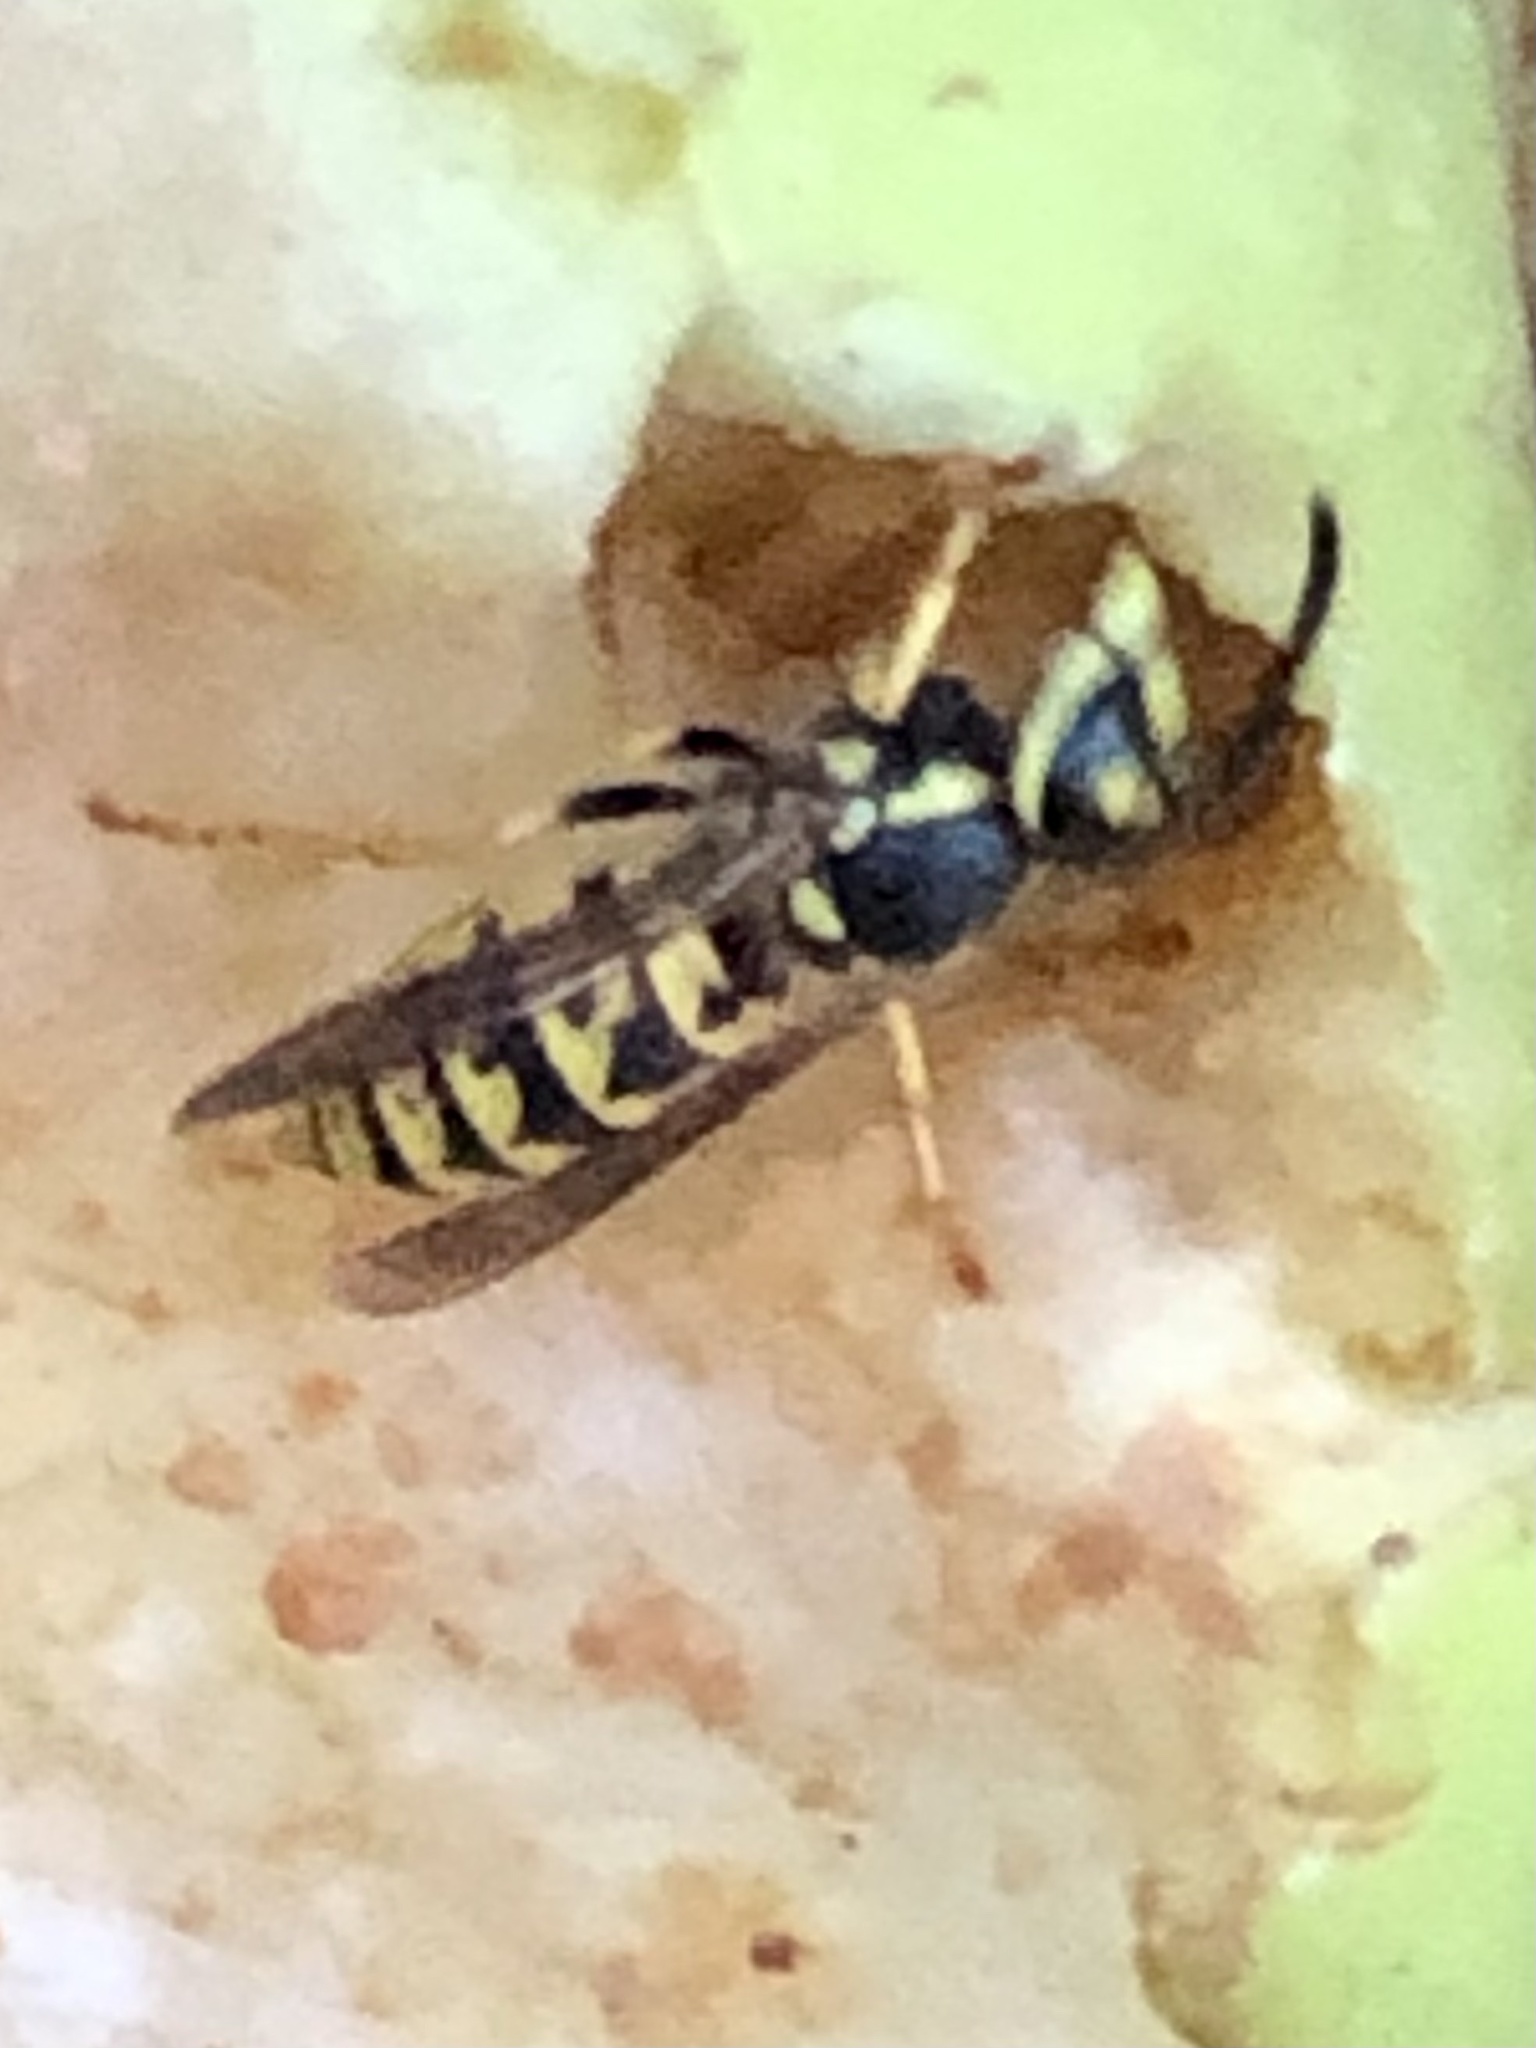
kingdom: Animalia
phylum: Arthropoda
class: Insecta
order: Hymenoptera
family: Vespidae
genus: Vespula
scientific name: Vespula germanica
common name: German wasp
